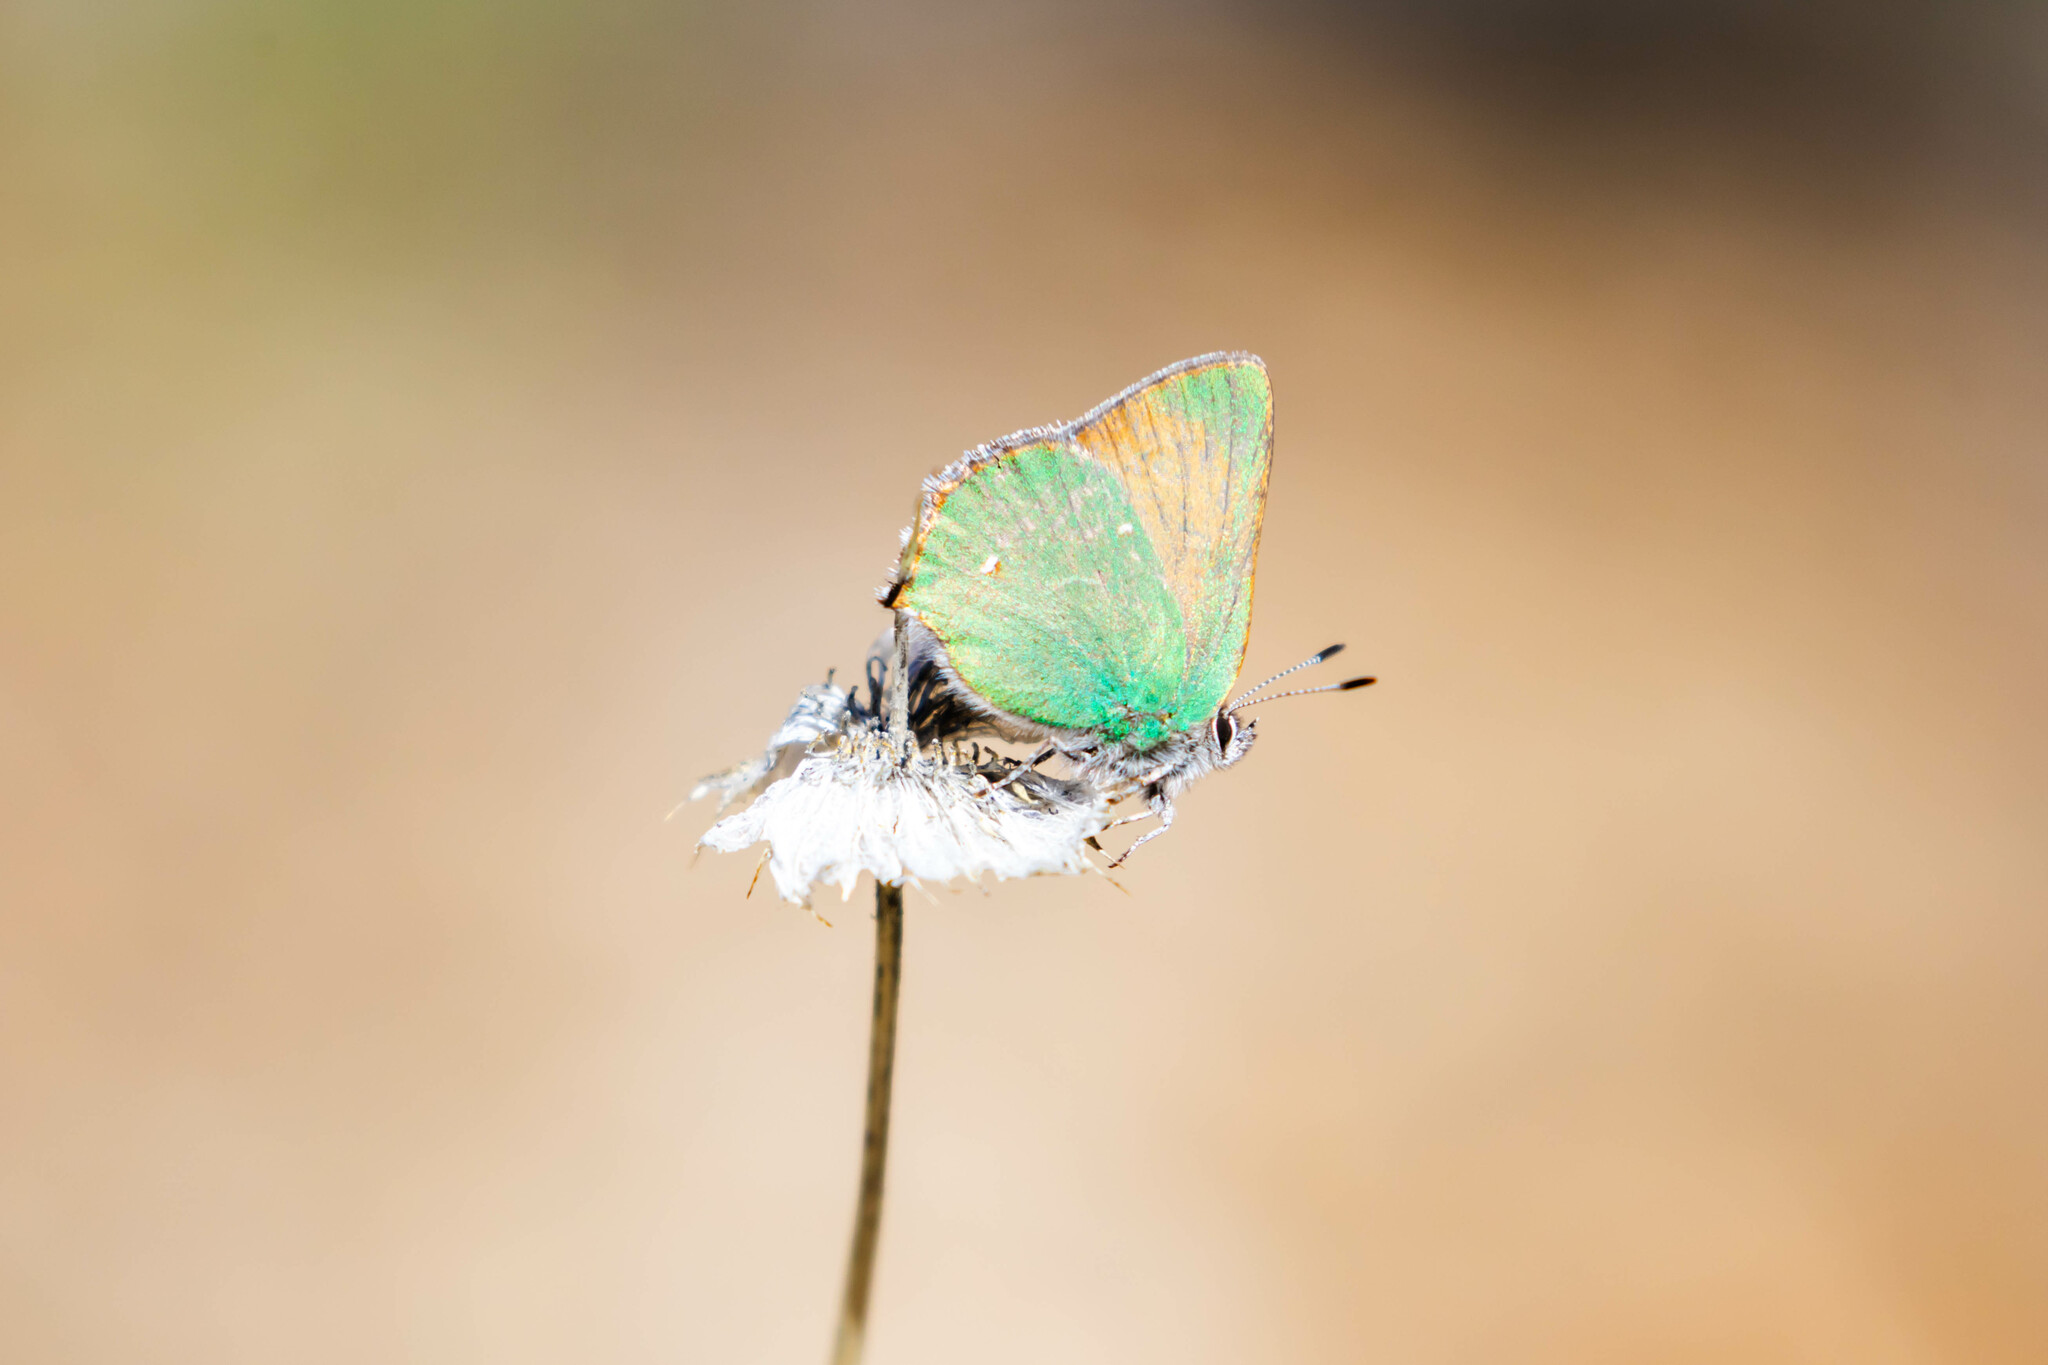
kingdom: Animalia
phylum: Arthropoda
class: Insecta
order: Lepidoptera
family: Lycaenidae
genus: Callophrys
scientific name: Callophrys dumetorum
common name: Bramble hairstreak
